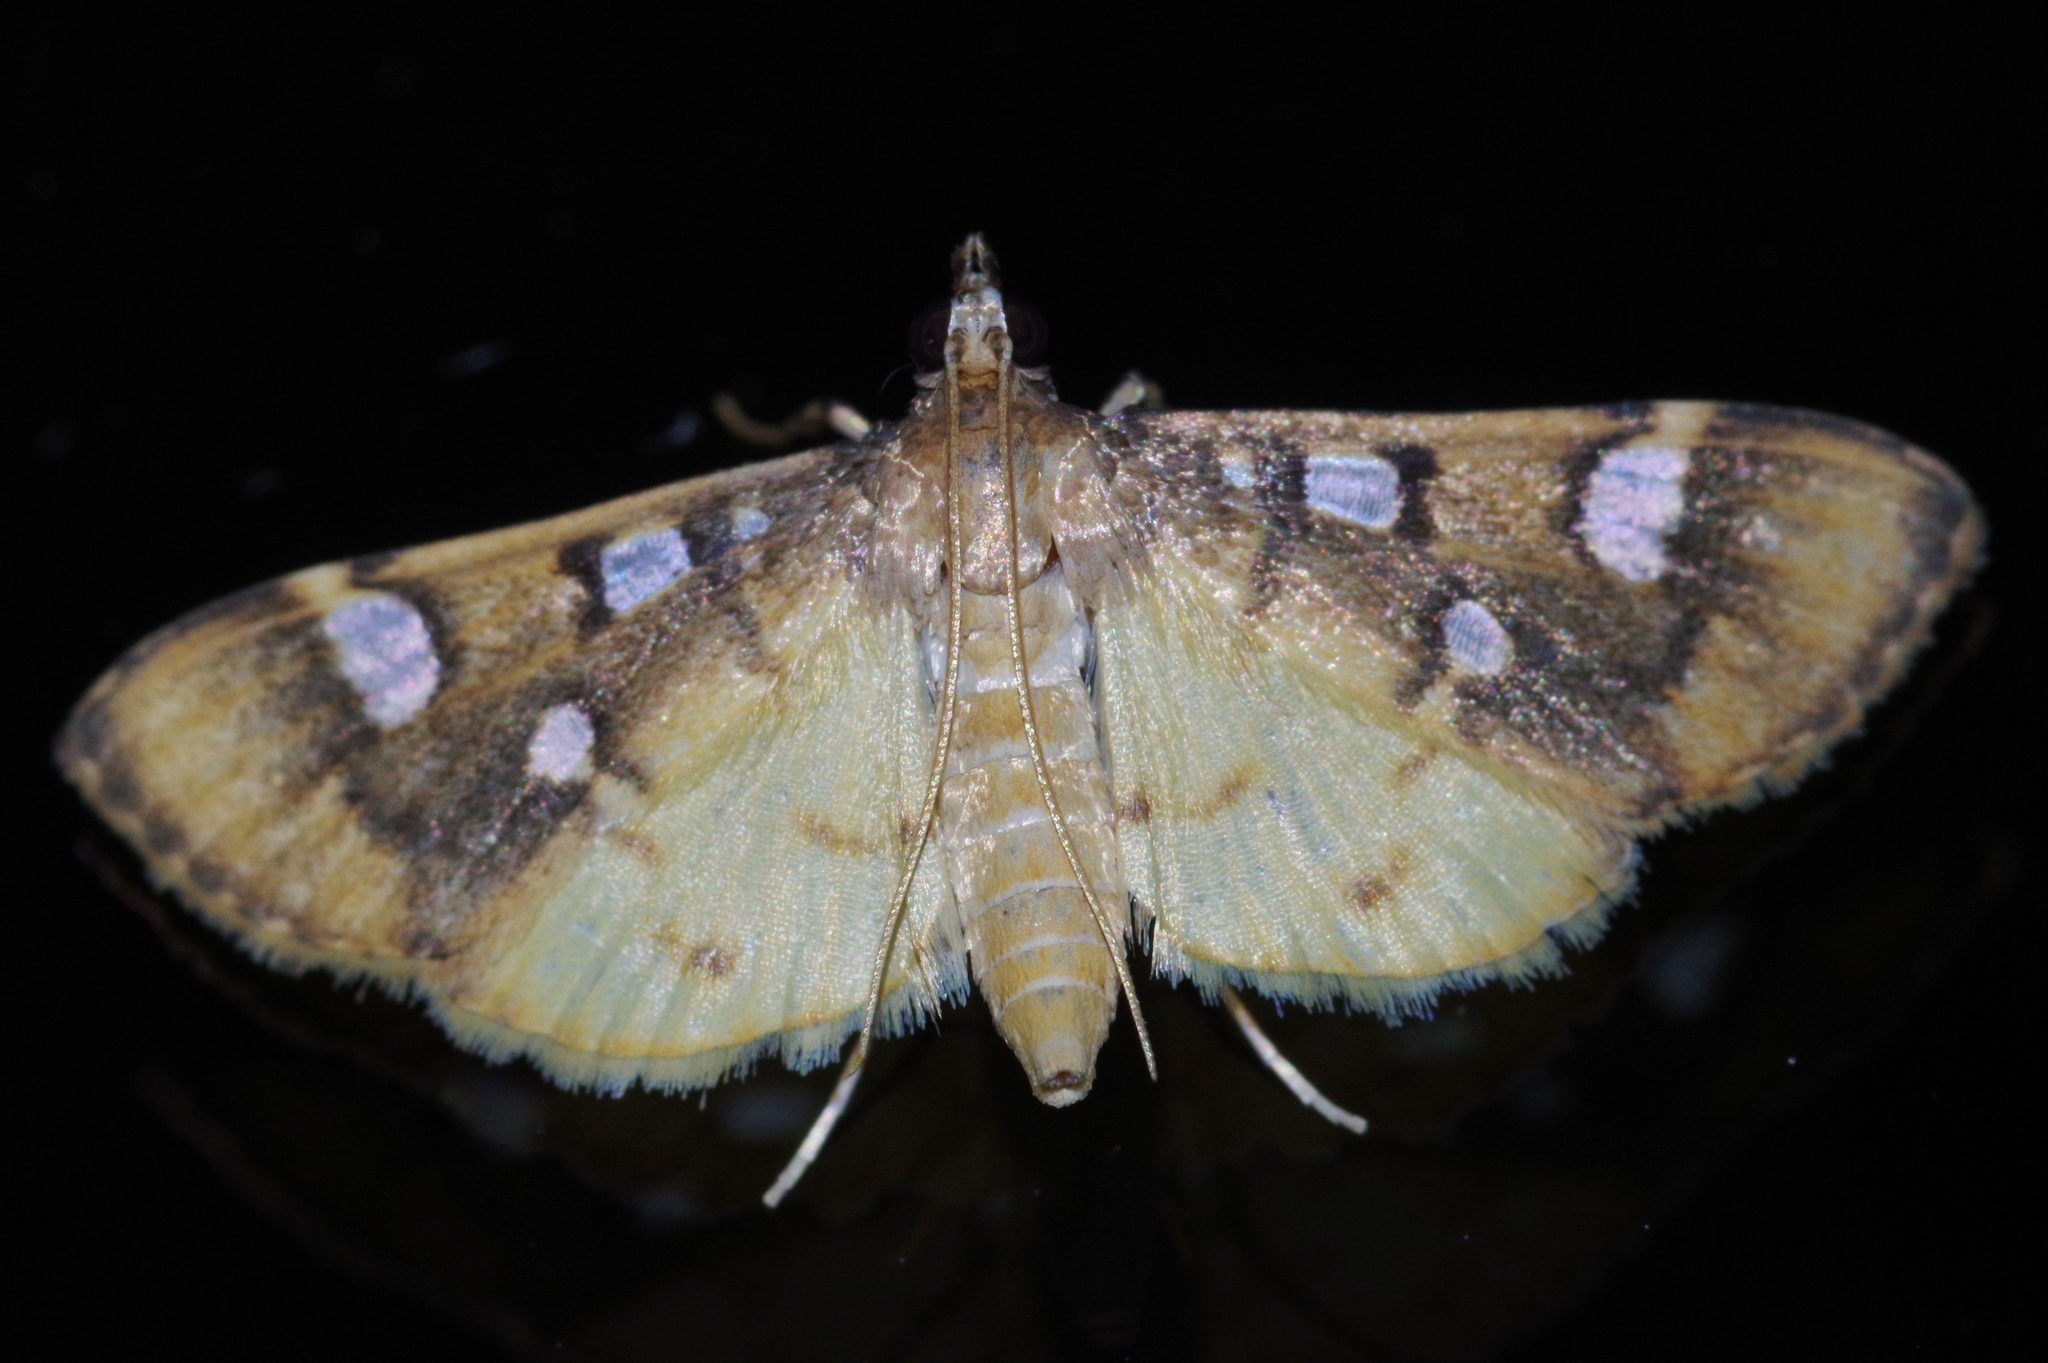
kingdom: Animalia
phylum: Arthropoda
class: Insecta
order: Lepidoptera
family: Crambidae
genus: Cotachena
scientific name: Cotachena alysoni
